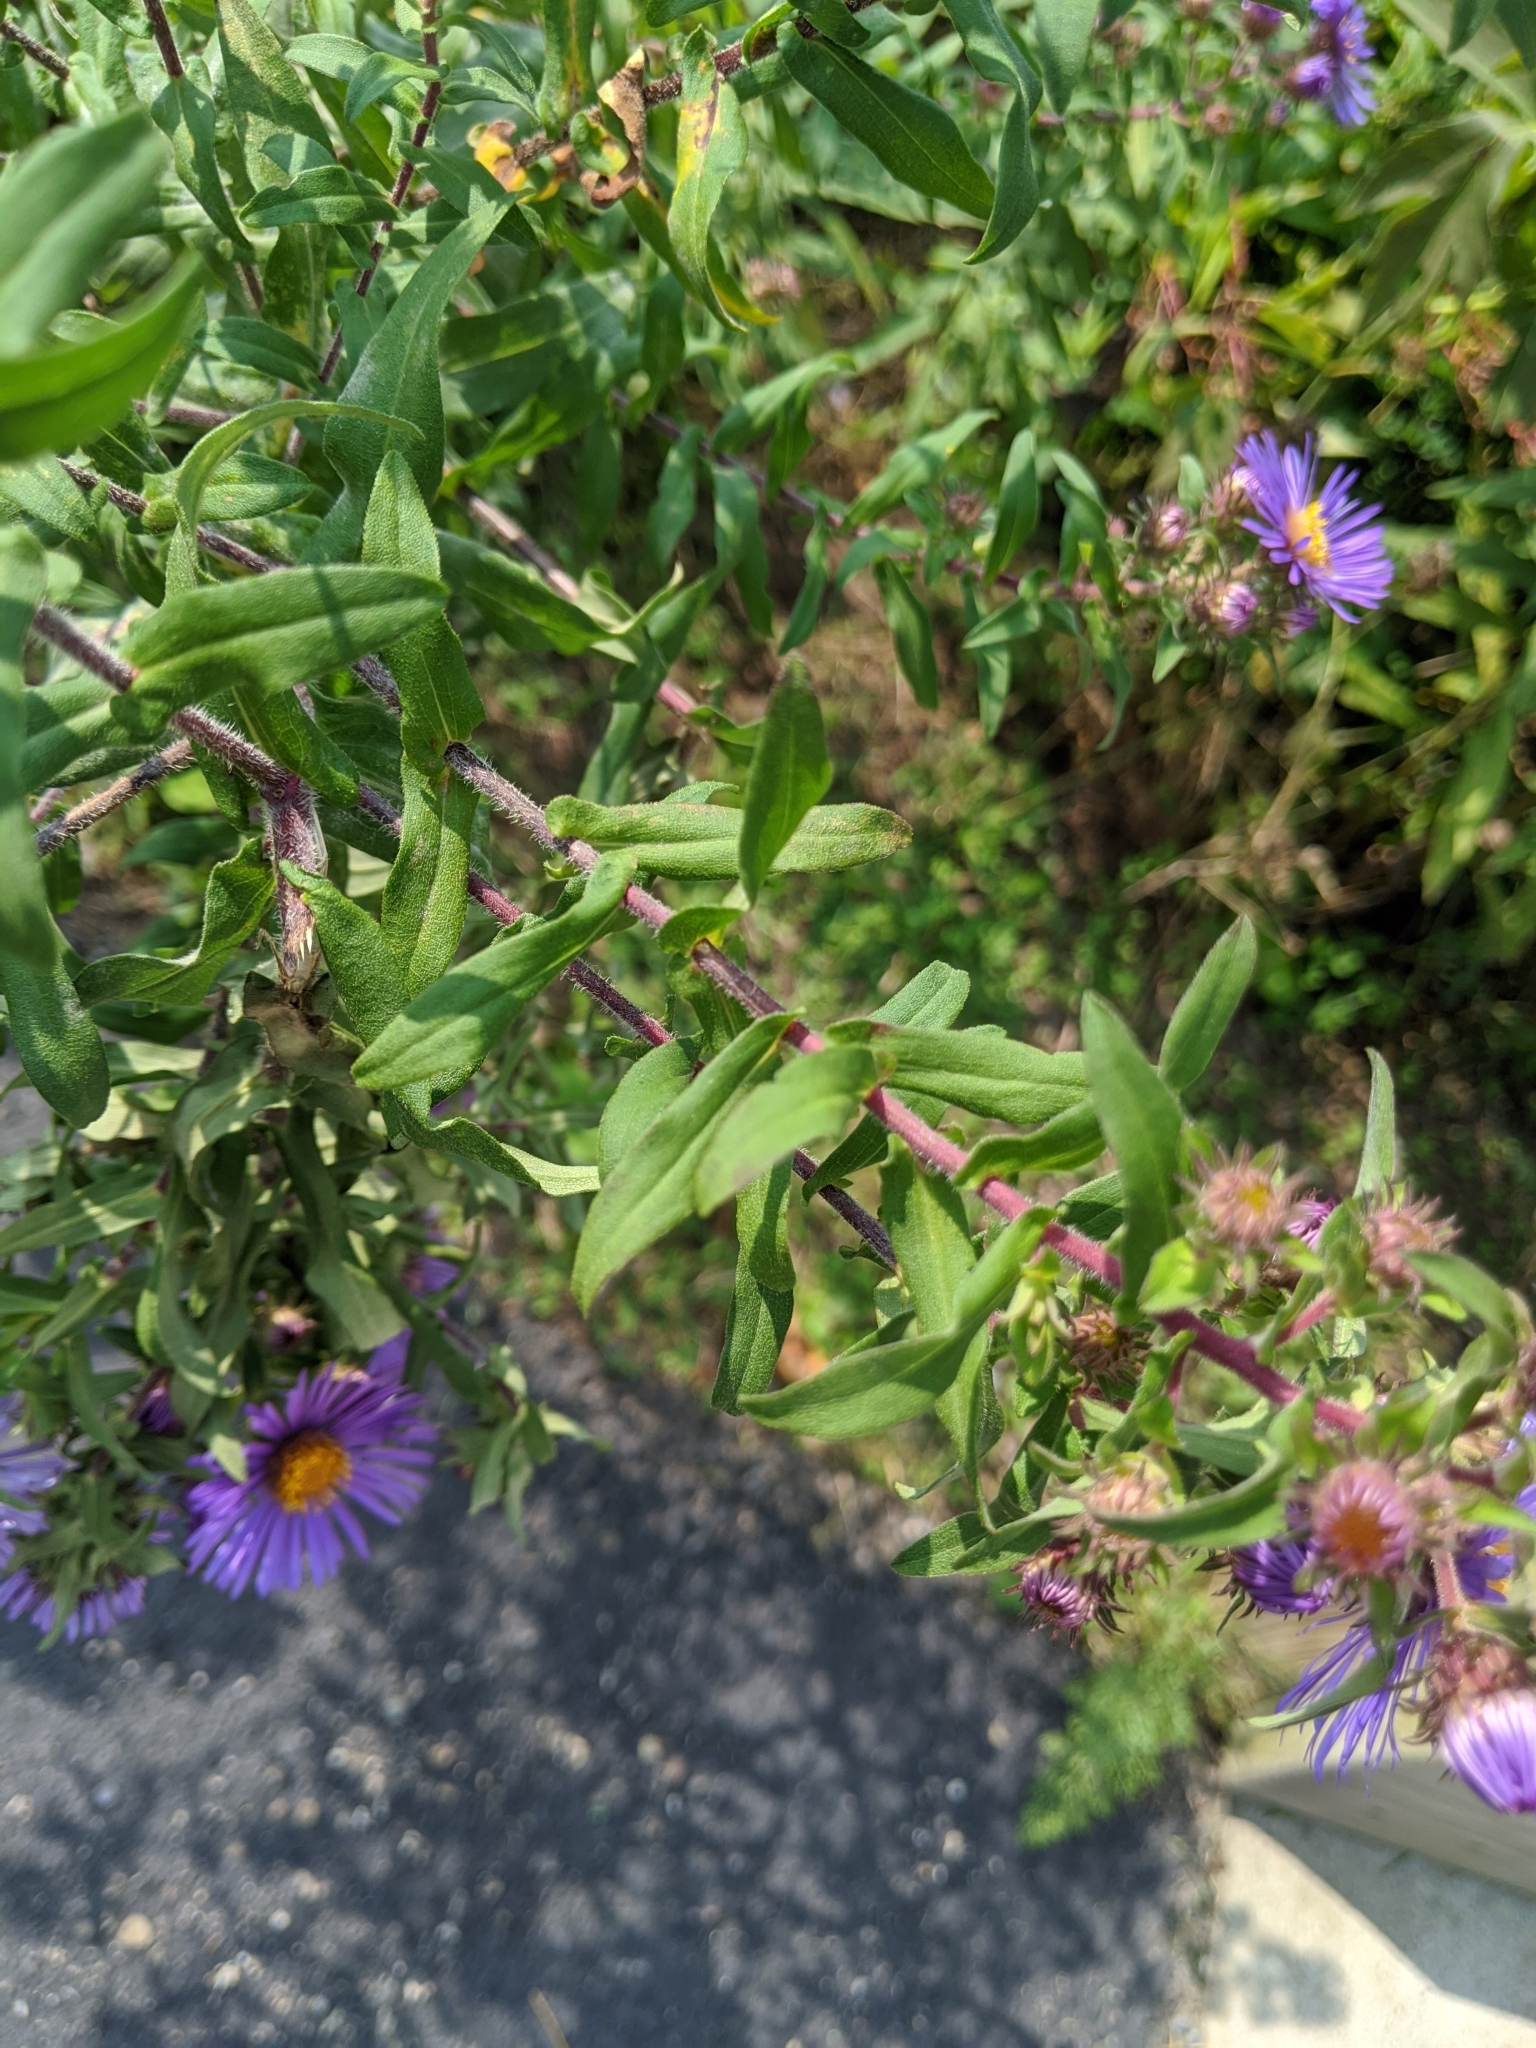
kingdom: Plantae
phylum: Tracheophyta
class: Magnoliopsida
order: Asterales
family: Asteraceae
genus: Symphyotrichum
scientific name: Symphyotrichum novae-angliae
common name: Michaelmas daisy
